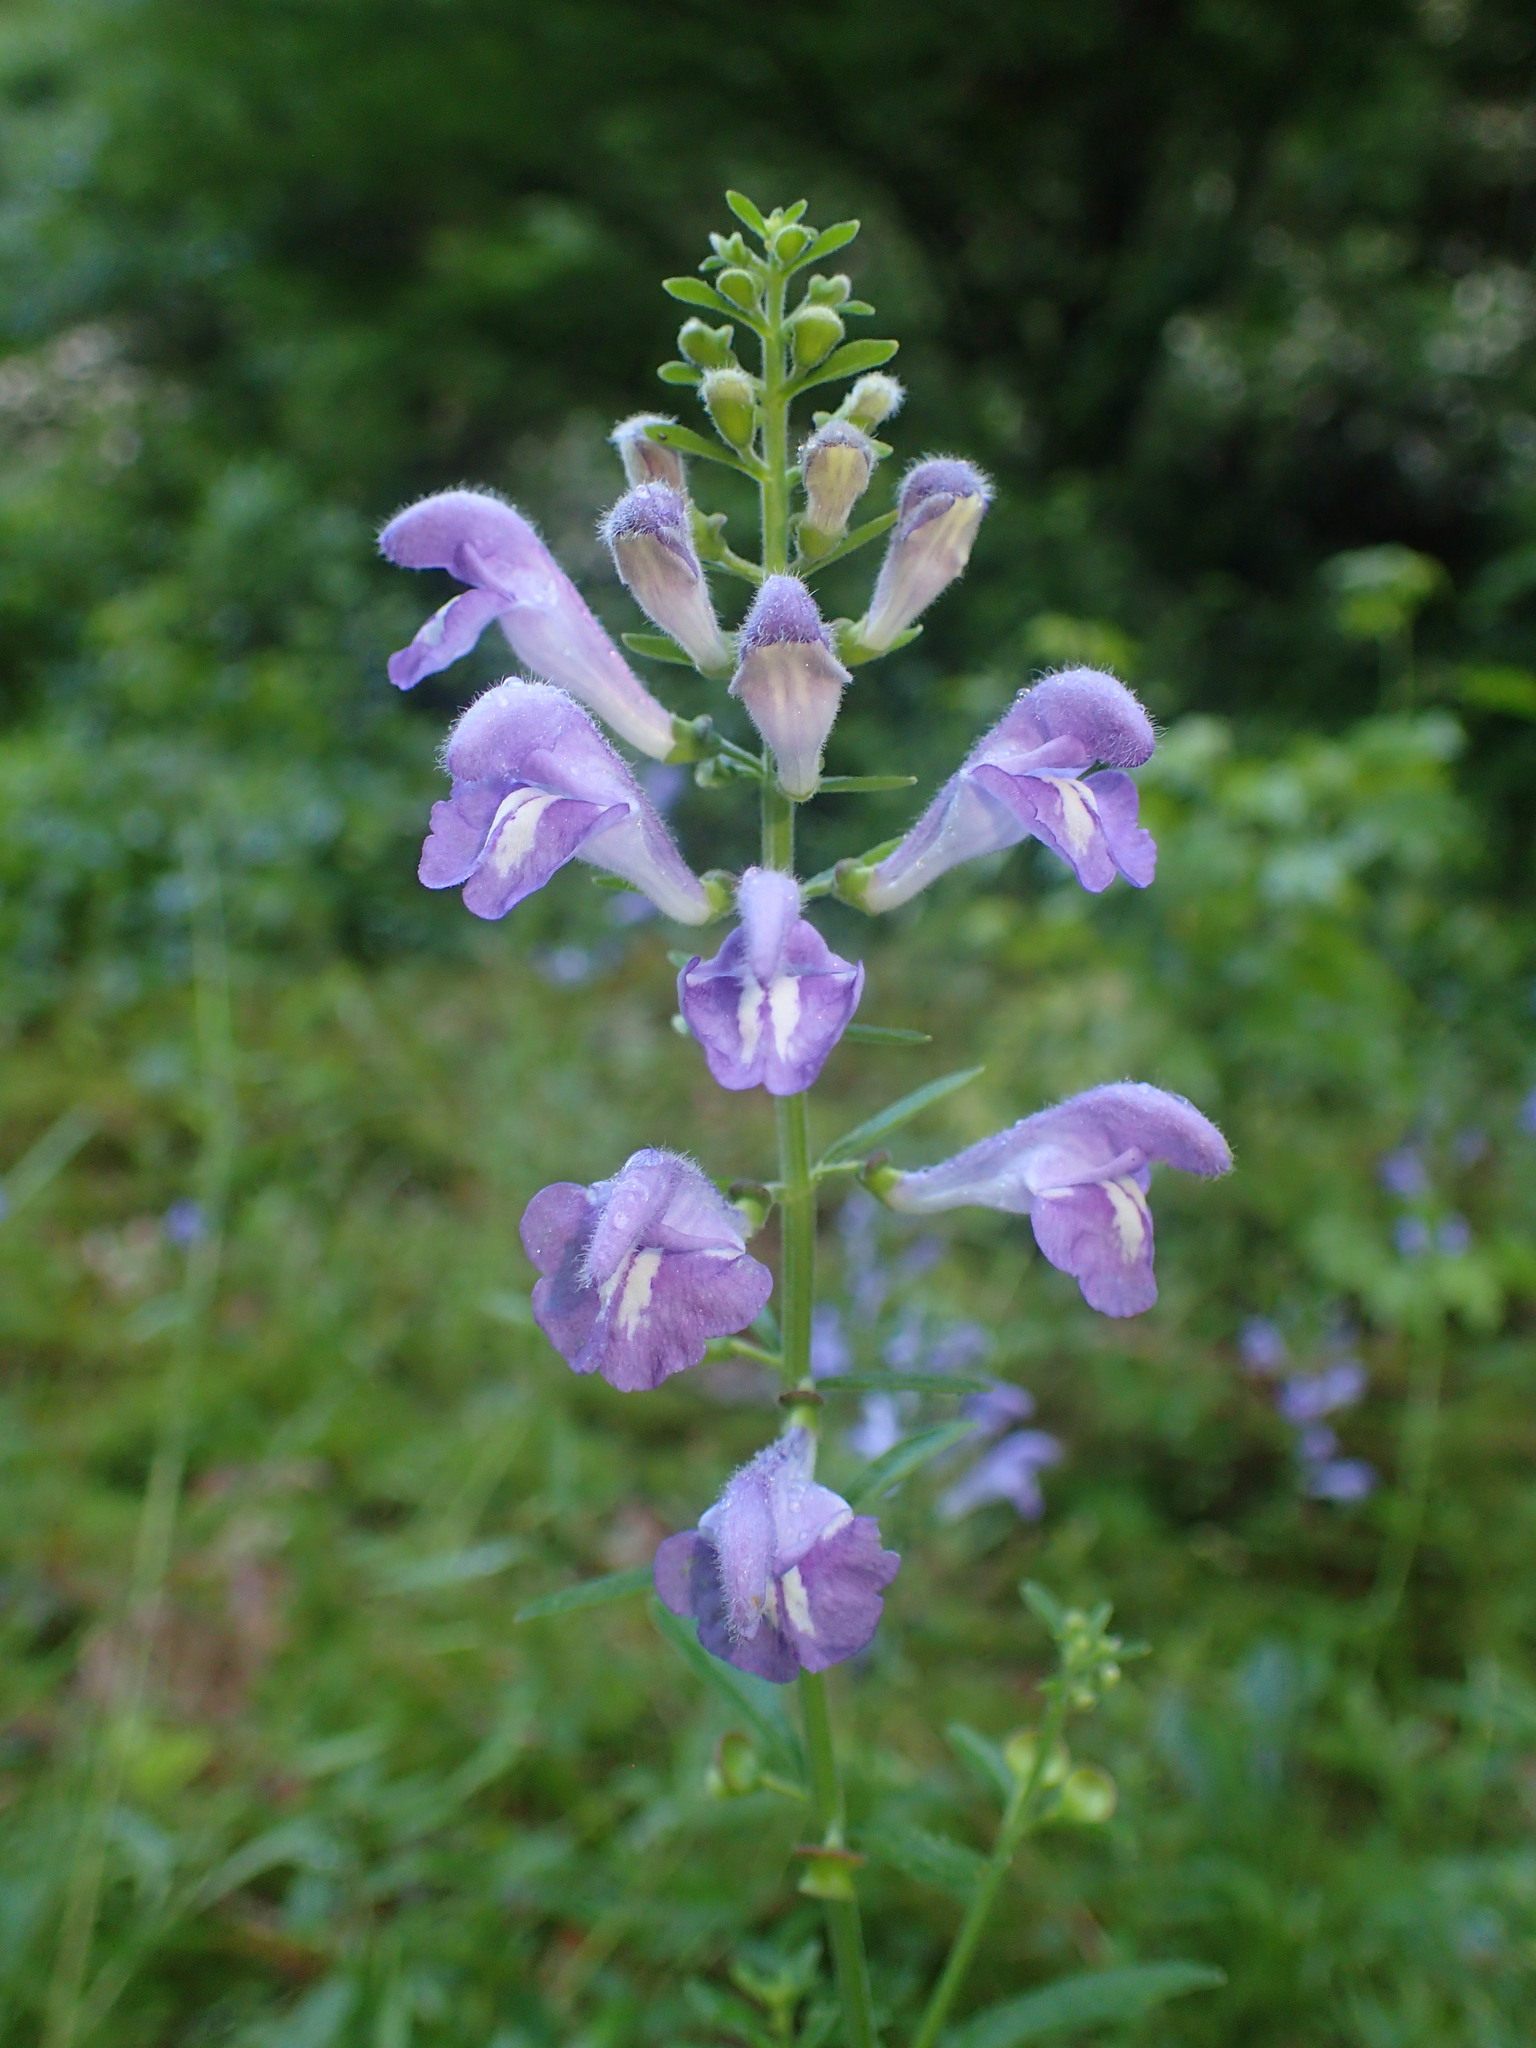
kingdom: Plantae
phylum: Tracheophyta
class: Magnoliopsida
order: Lamiales
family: Lamiaceae
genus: Scutellaria
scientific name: Scutellaria integrifolia
